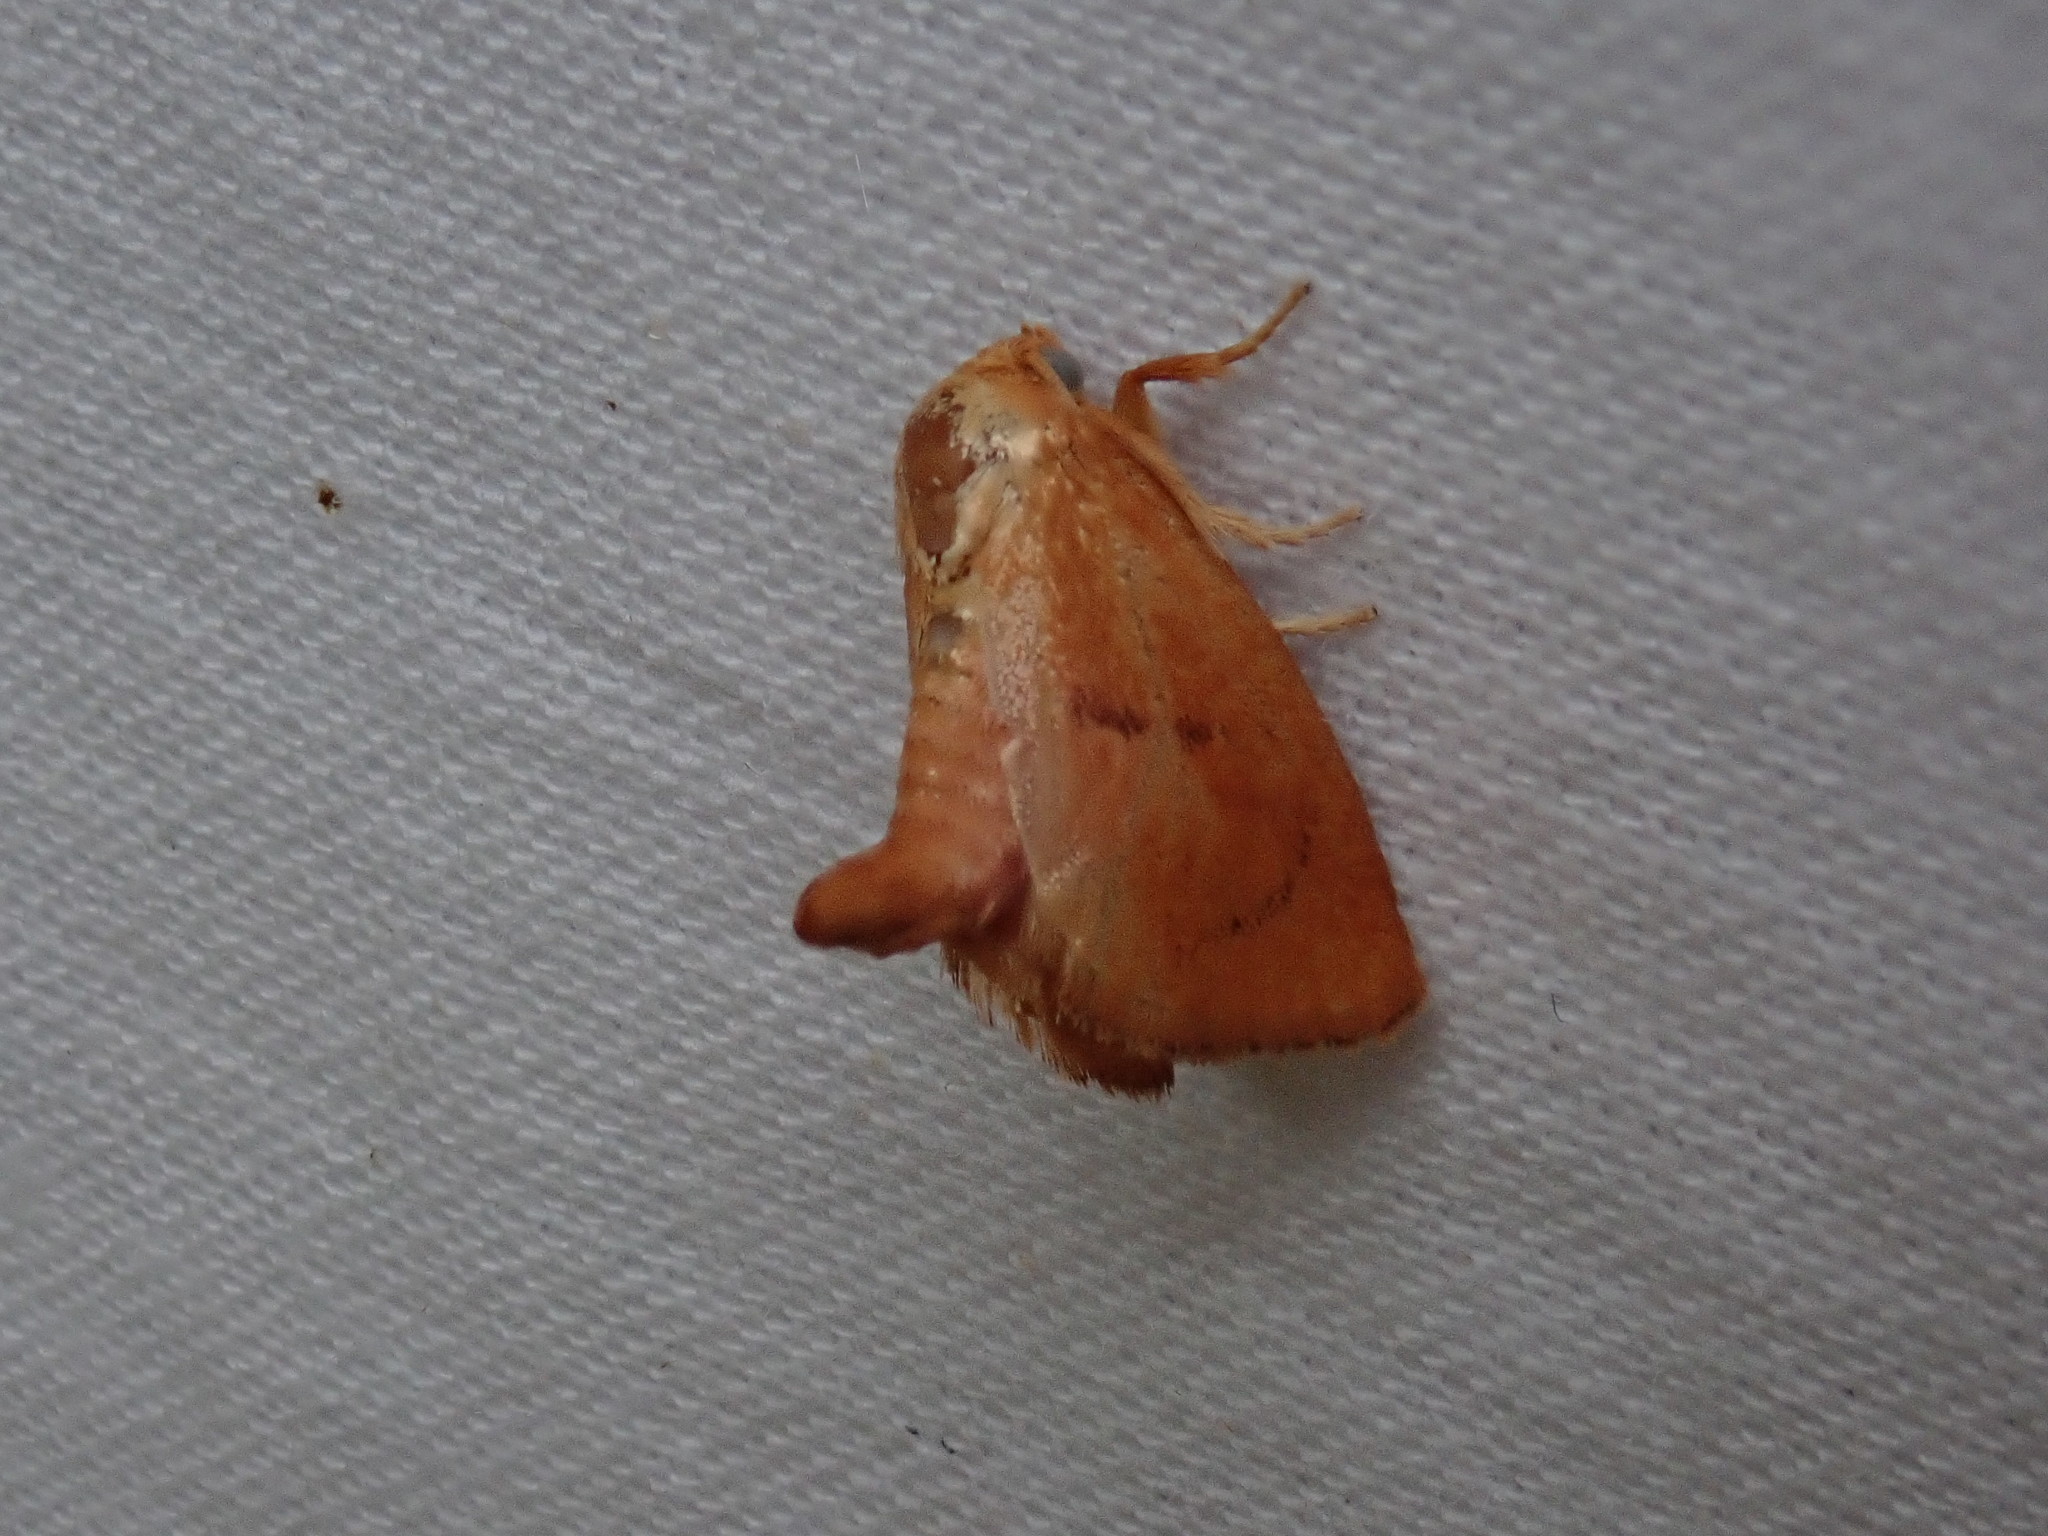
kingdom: Animalia
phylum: Arthropoda
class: Insecta
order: Lepidoptera
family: Limacodidae
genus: Tortricidia
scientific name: Tortricidia flexuosa
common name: Abbreviated button slug moth
